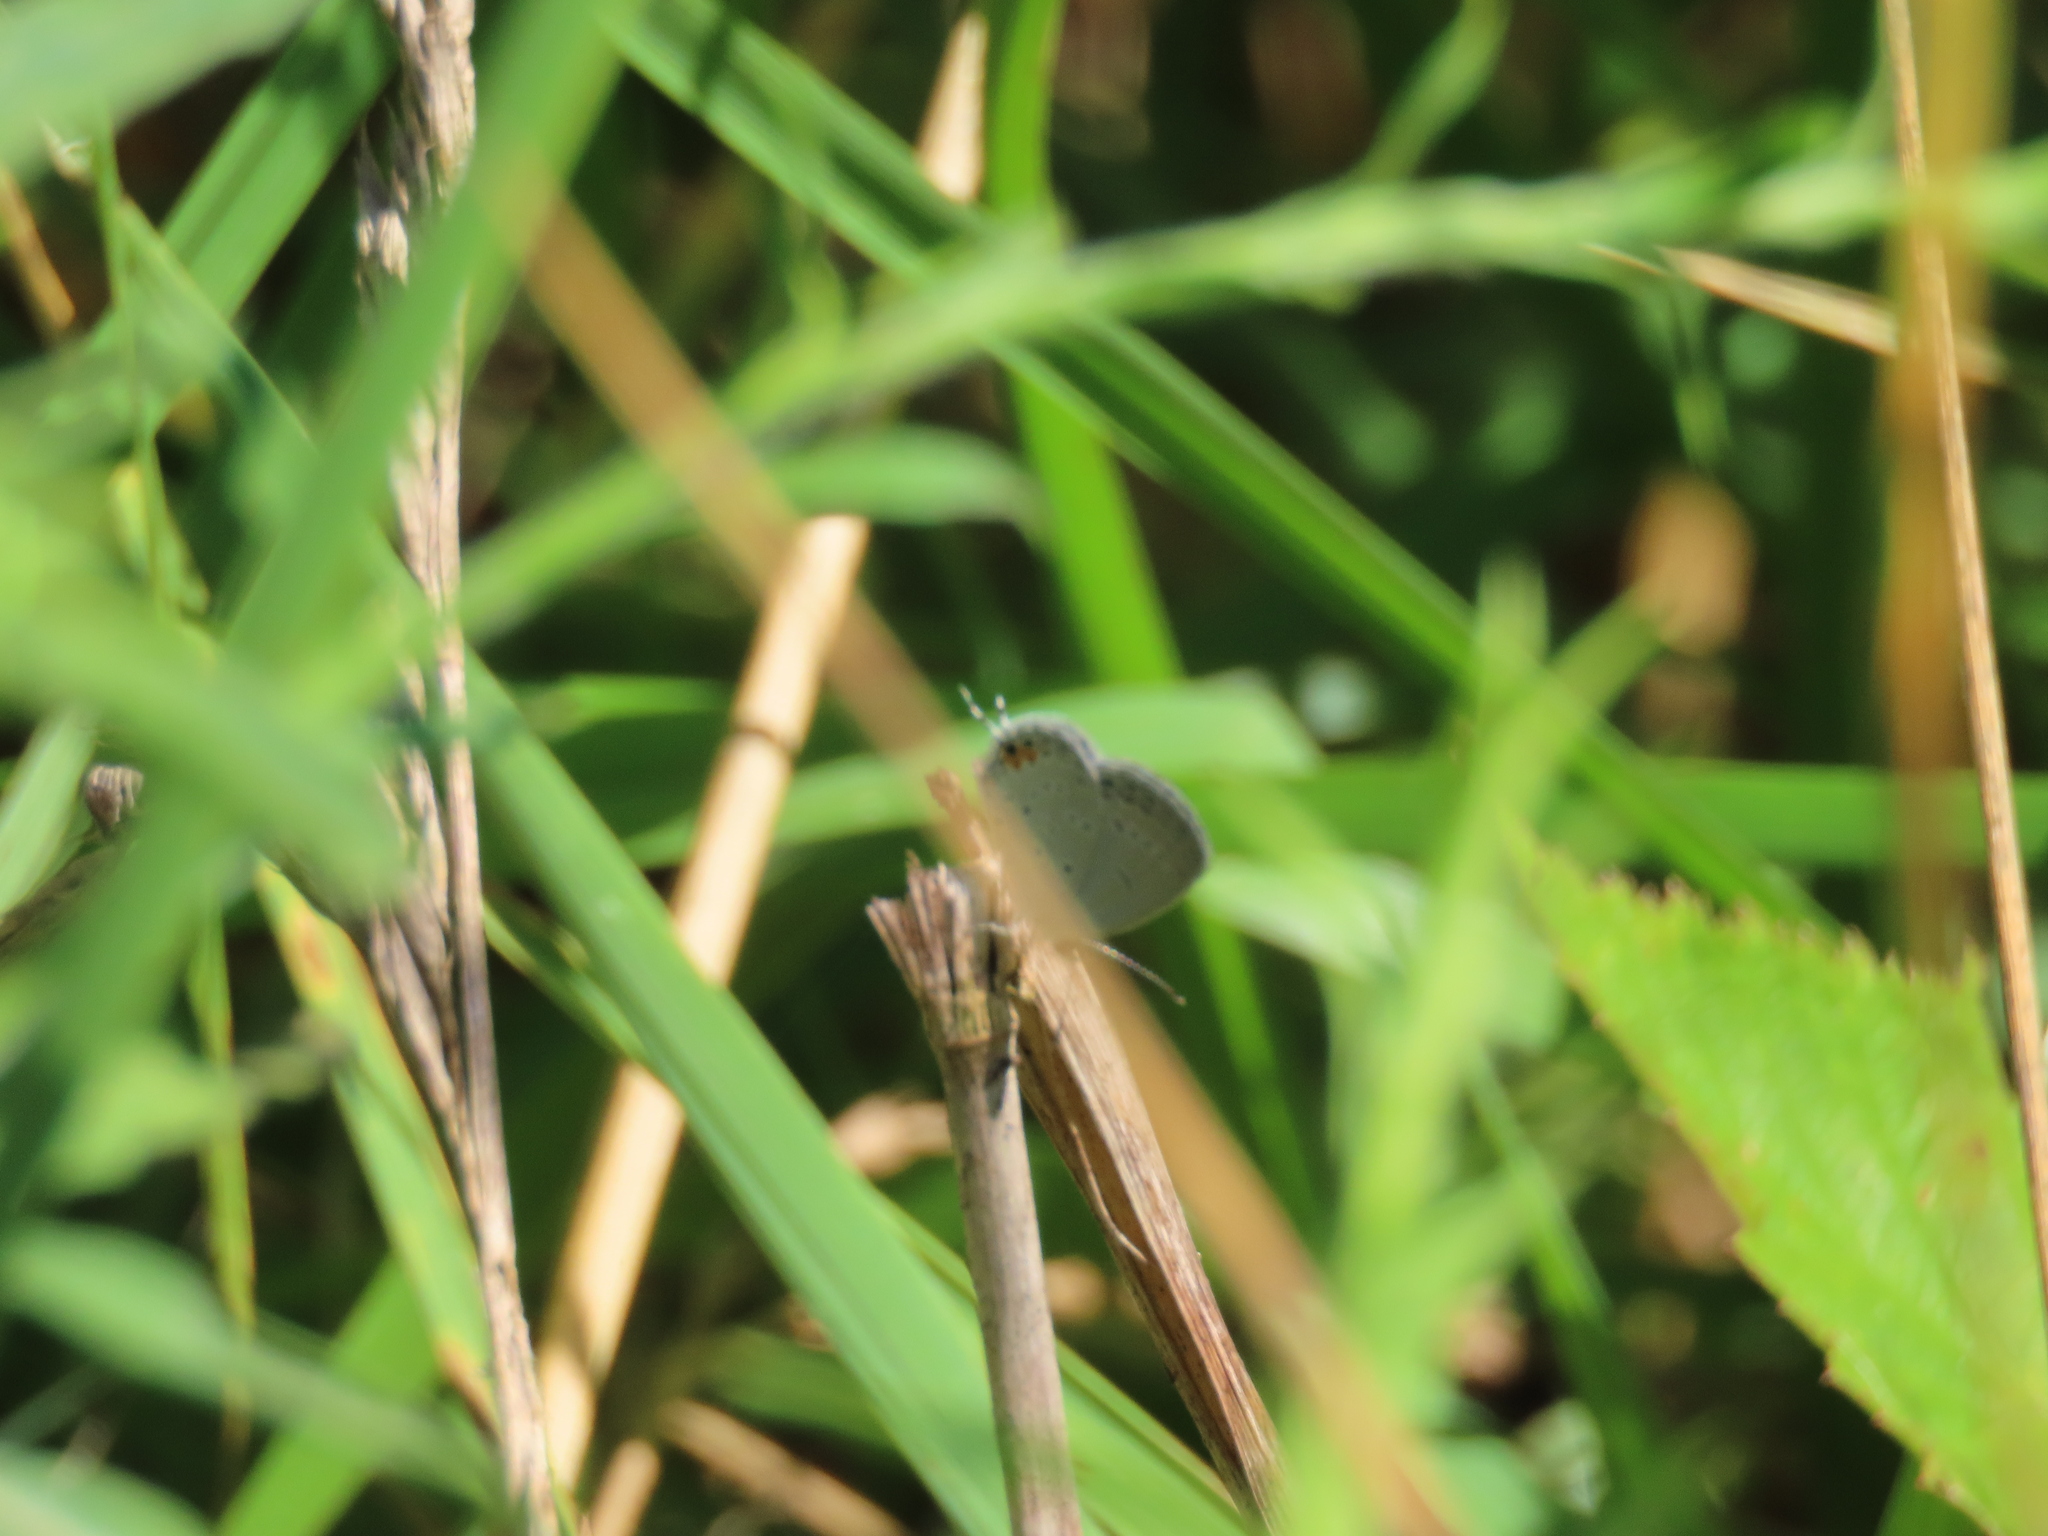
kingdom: Animalia
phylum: Arthropoda
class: Insecta
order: Lepidoptera
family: Lycaenidae
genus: Elkalyce
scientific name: Elkalyce comyntas
